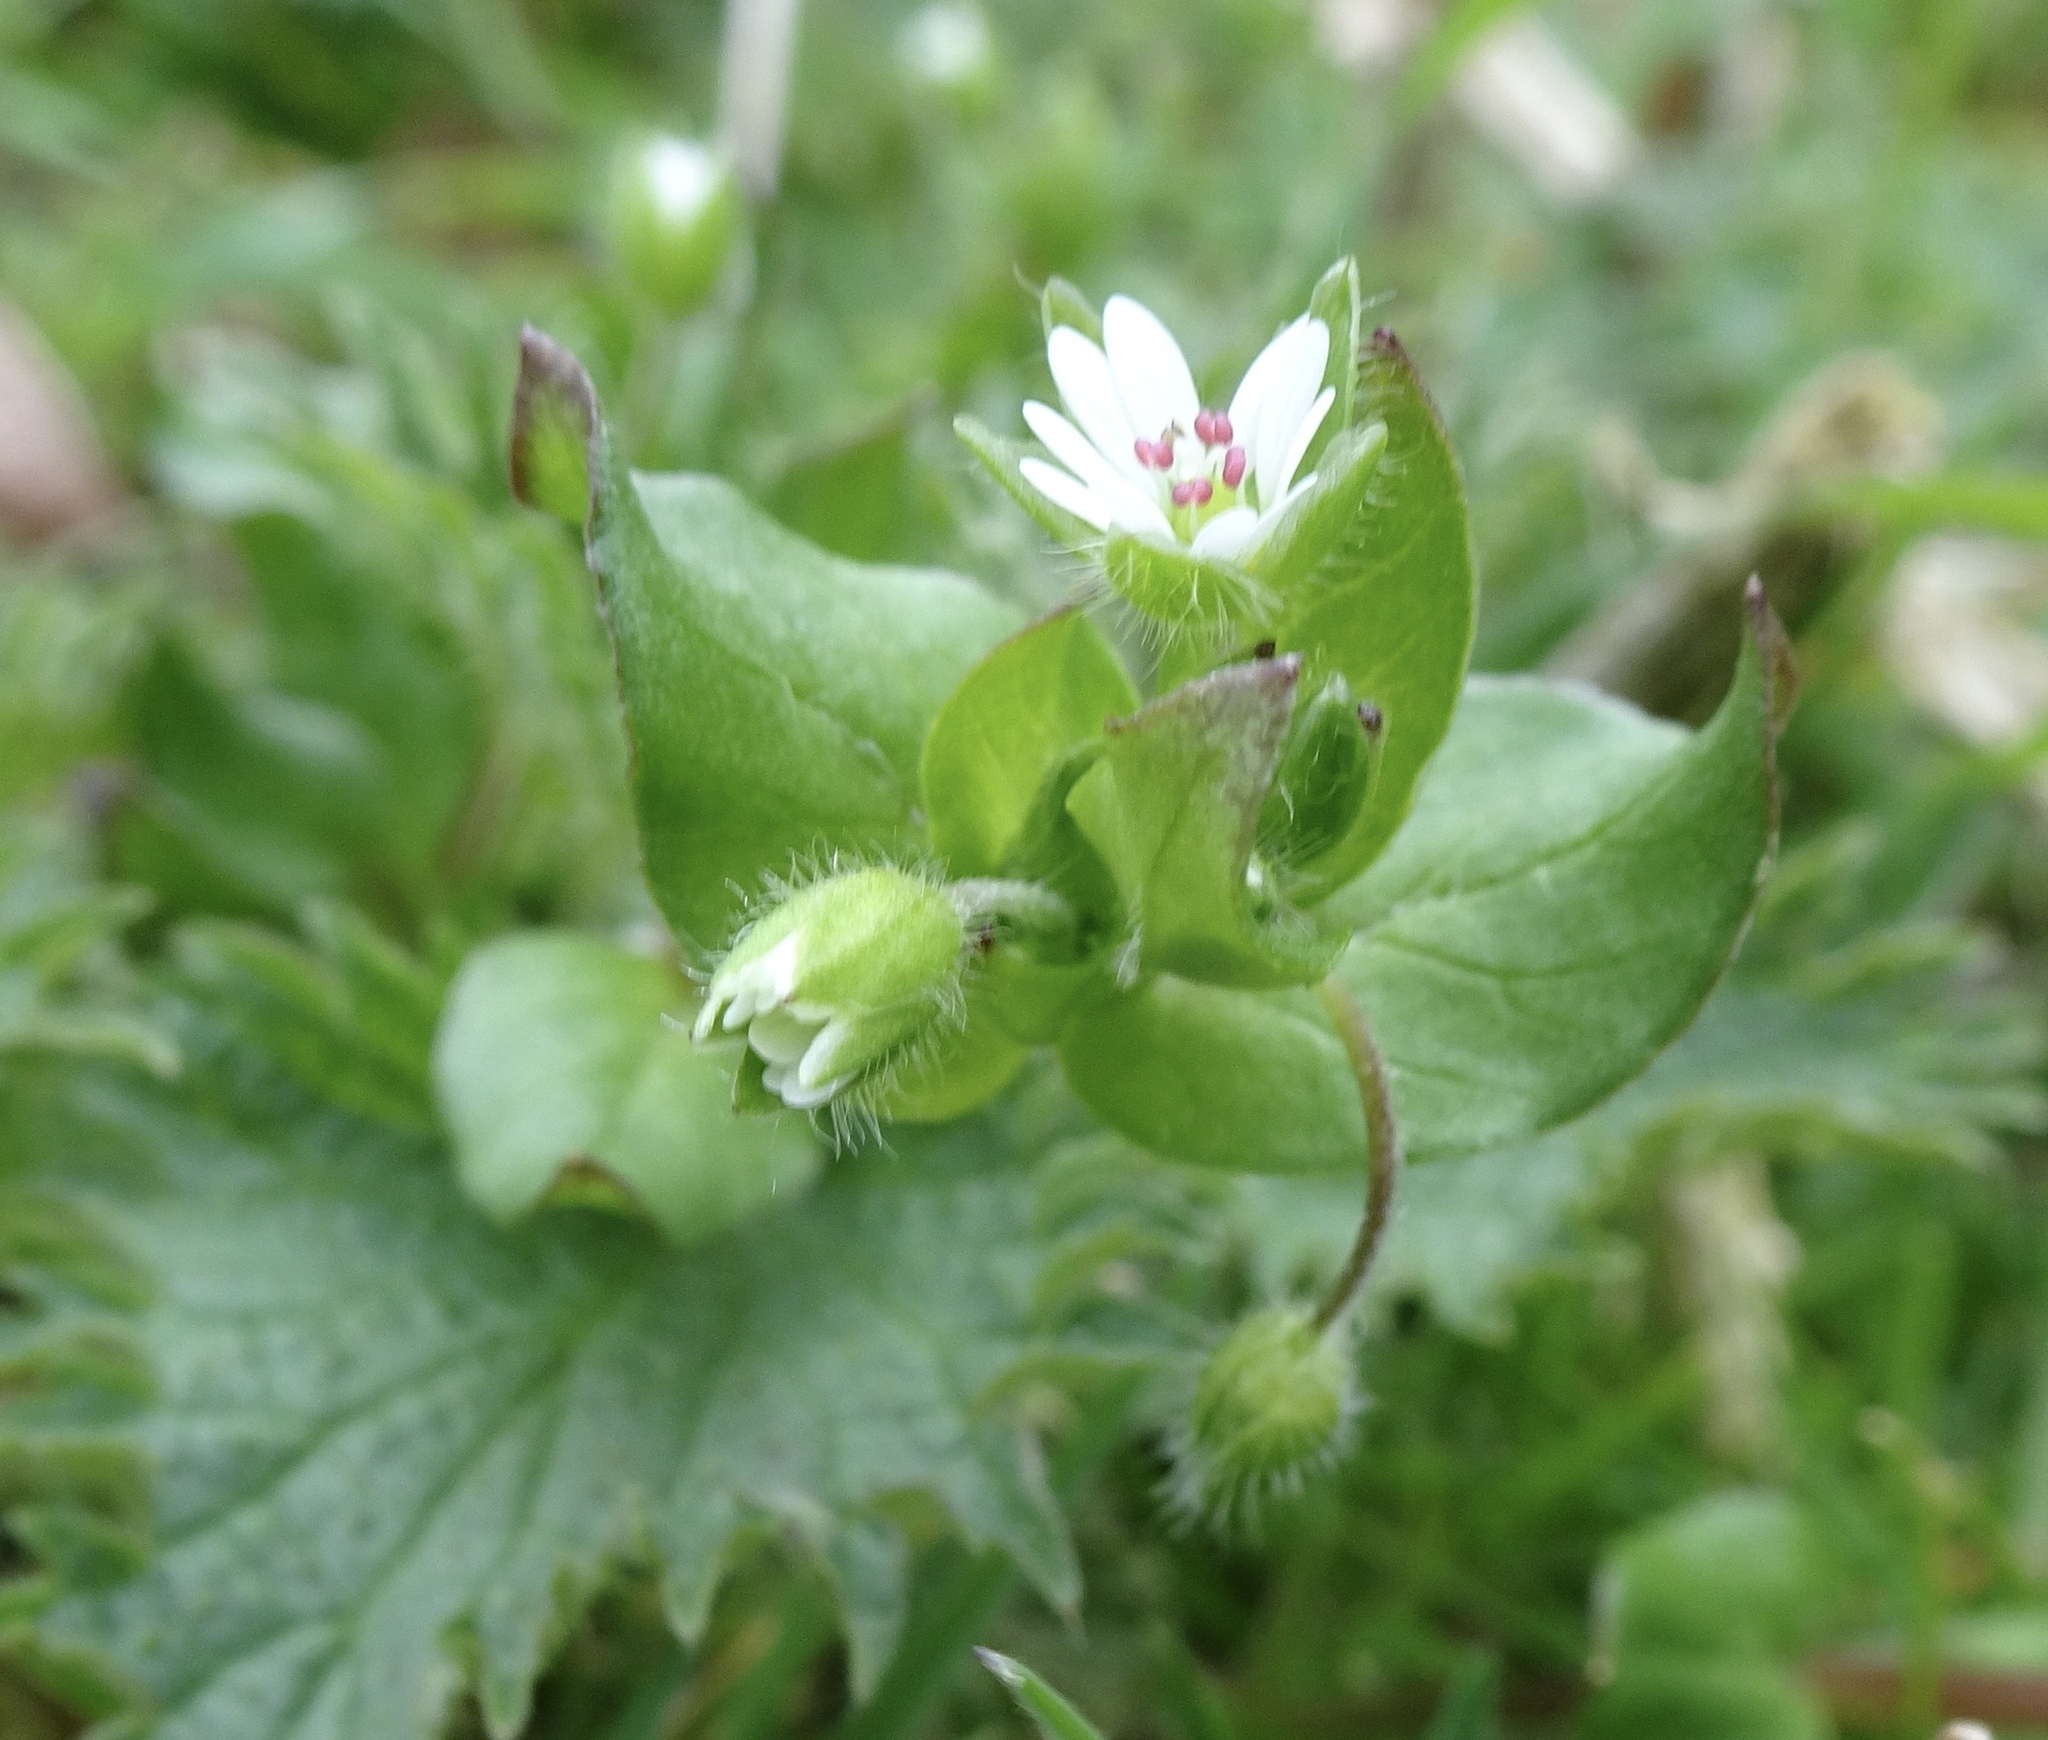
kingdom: Plantae
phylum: Tracheophyta
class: Magnoliopsida
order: Caryophyllales
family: Caryophyllaceae
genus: Stellaria
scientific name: Stellaria media
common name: Common chickweed
